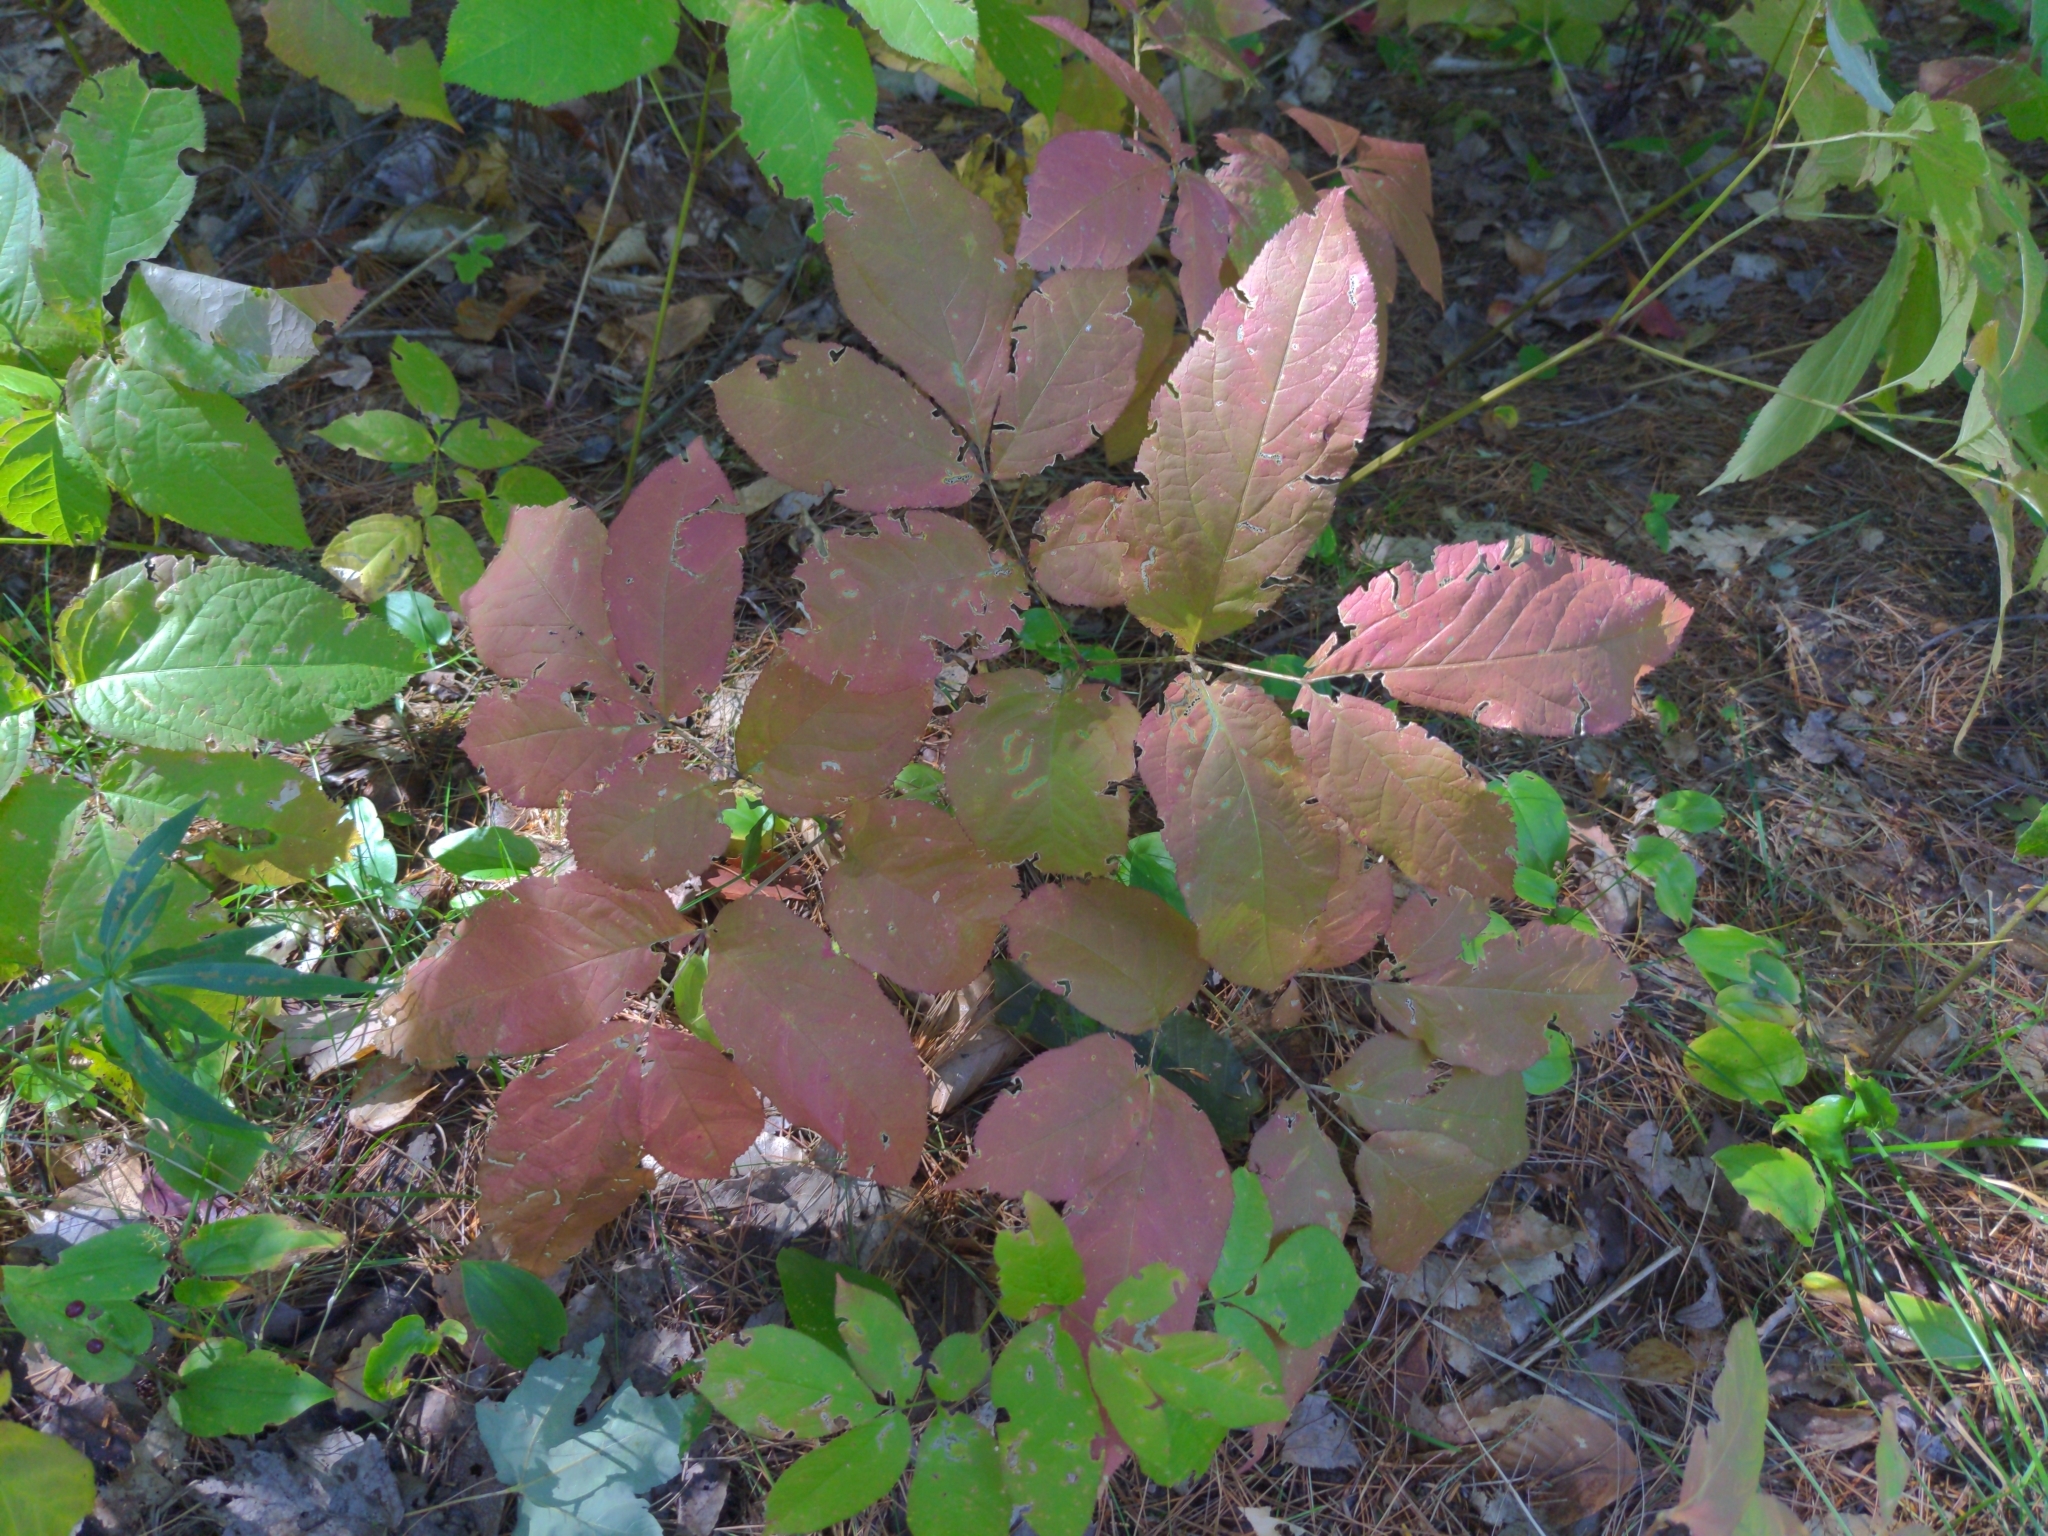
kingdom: Plantae
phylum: Tracheophyta
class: Magnoliopsida
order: Apiales
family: Araliaceae
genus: Aralia
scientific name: Aralia nudicaulis
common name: Wild sarsaparilla
